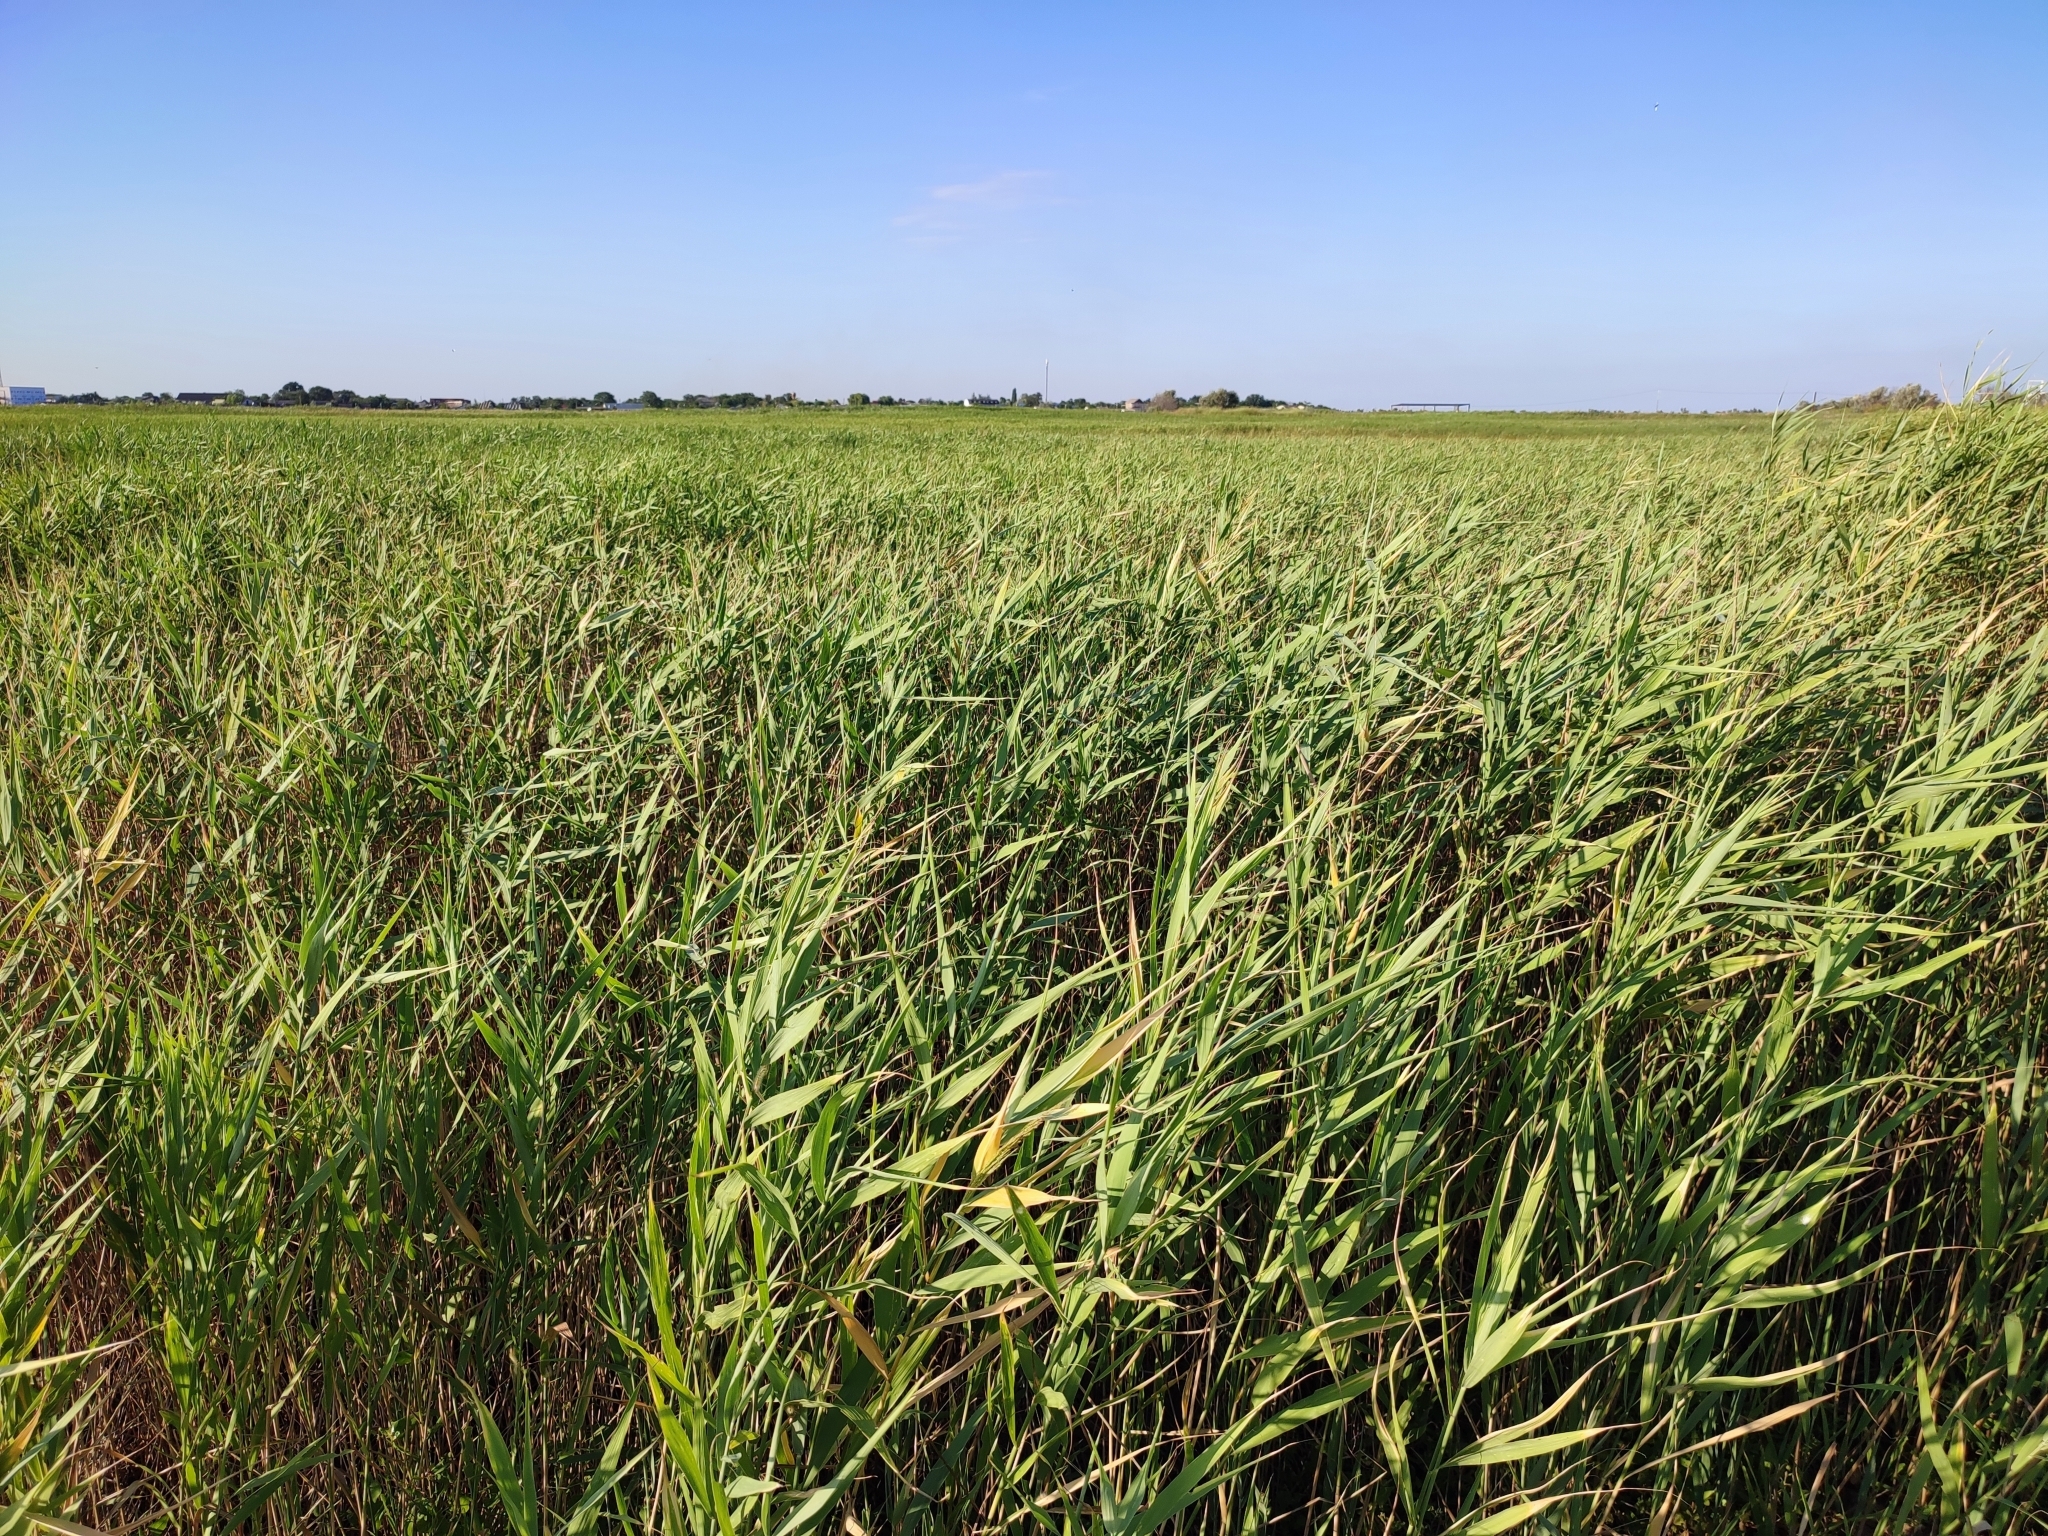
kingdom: Plantae
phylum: Tracheophyta
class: Liliopsida
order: Poales
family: Poaceae
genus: Phragmites
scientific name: Phragmites australis
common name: Common reed
